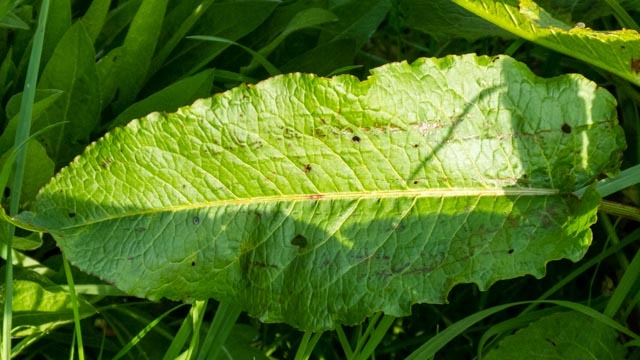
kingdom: Plantae
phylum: Tracheophyta
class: Magnoliopsida
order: Caryophyllales
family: Polygonaceae
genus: Rumex
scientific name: Rumex obtusifolius
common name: Bitter dock
